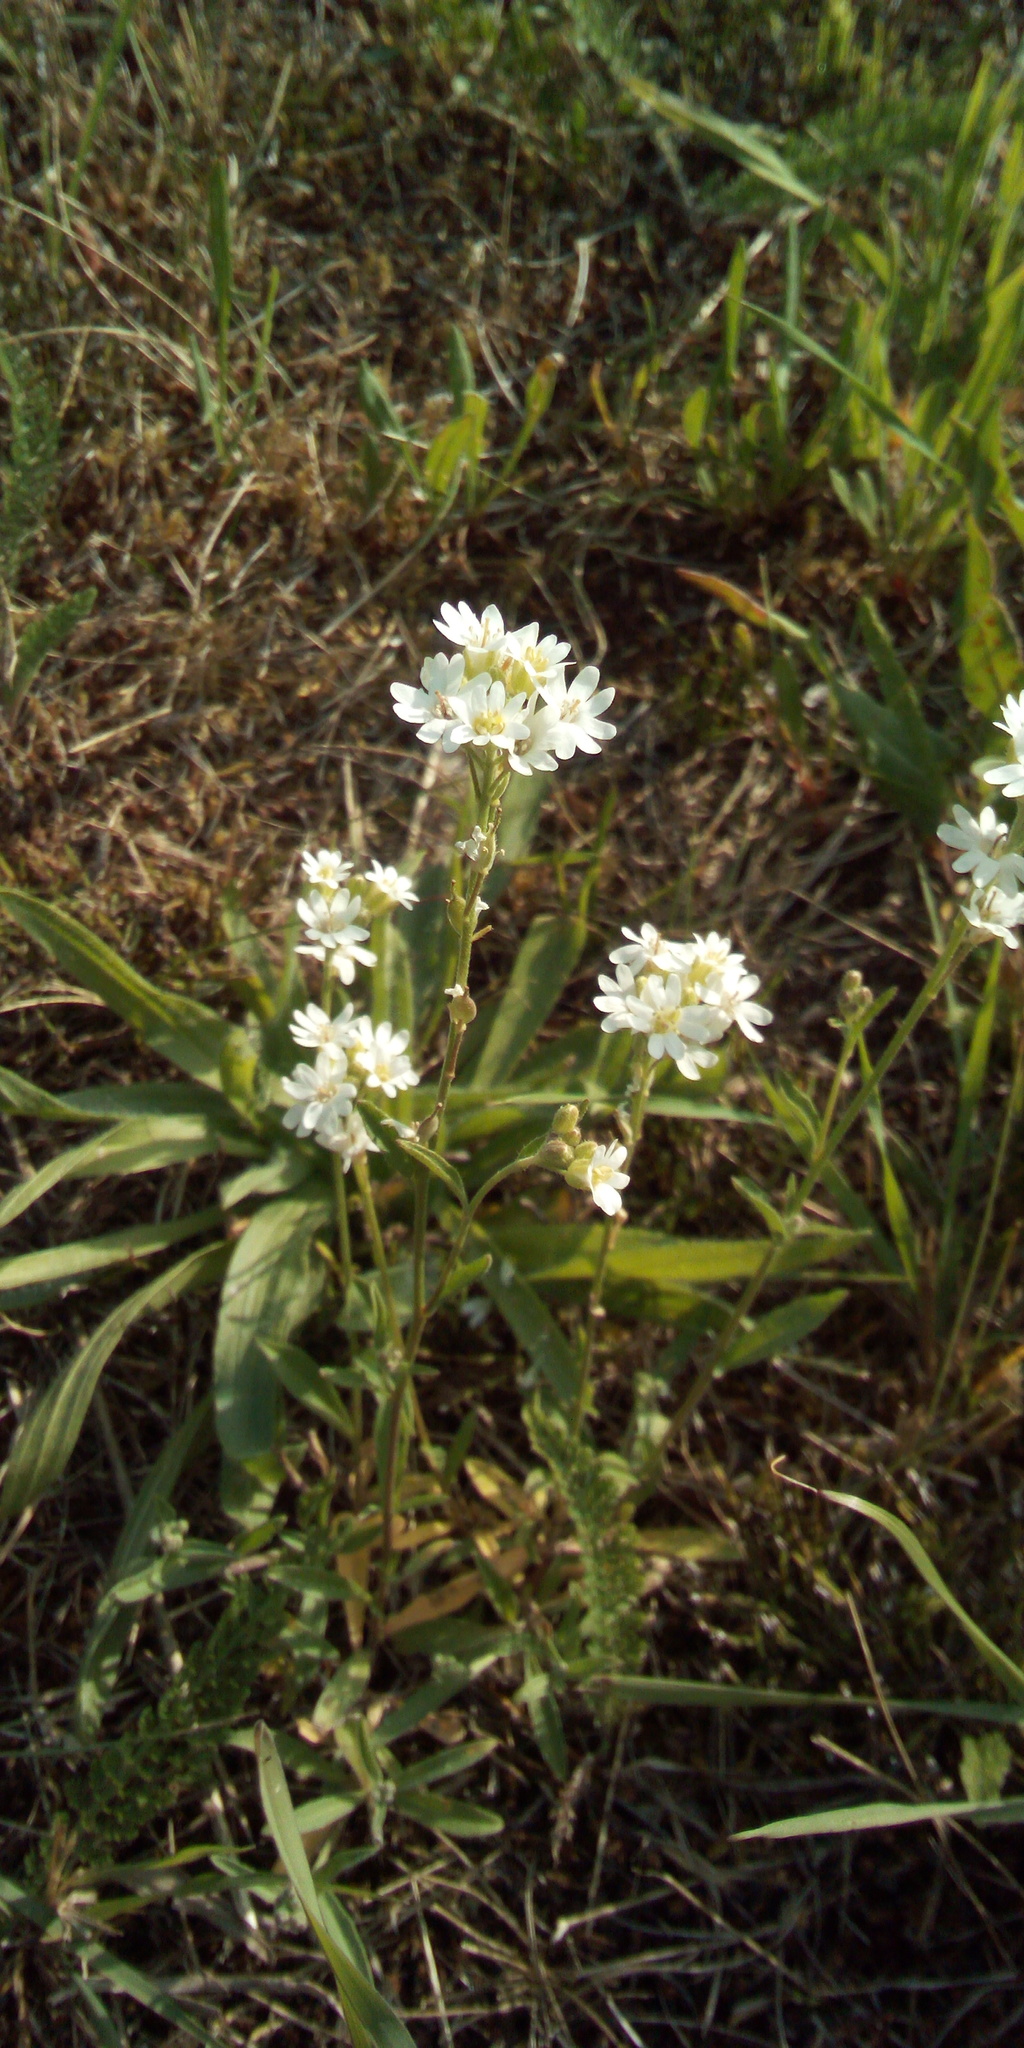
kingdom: Plantae
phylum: Tracheophyta
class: Magnoliopsida
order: Brassicales
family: Brassicaceae
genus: Berteroa
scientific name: Berteroa incana
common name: Hoary alison
